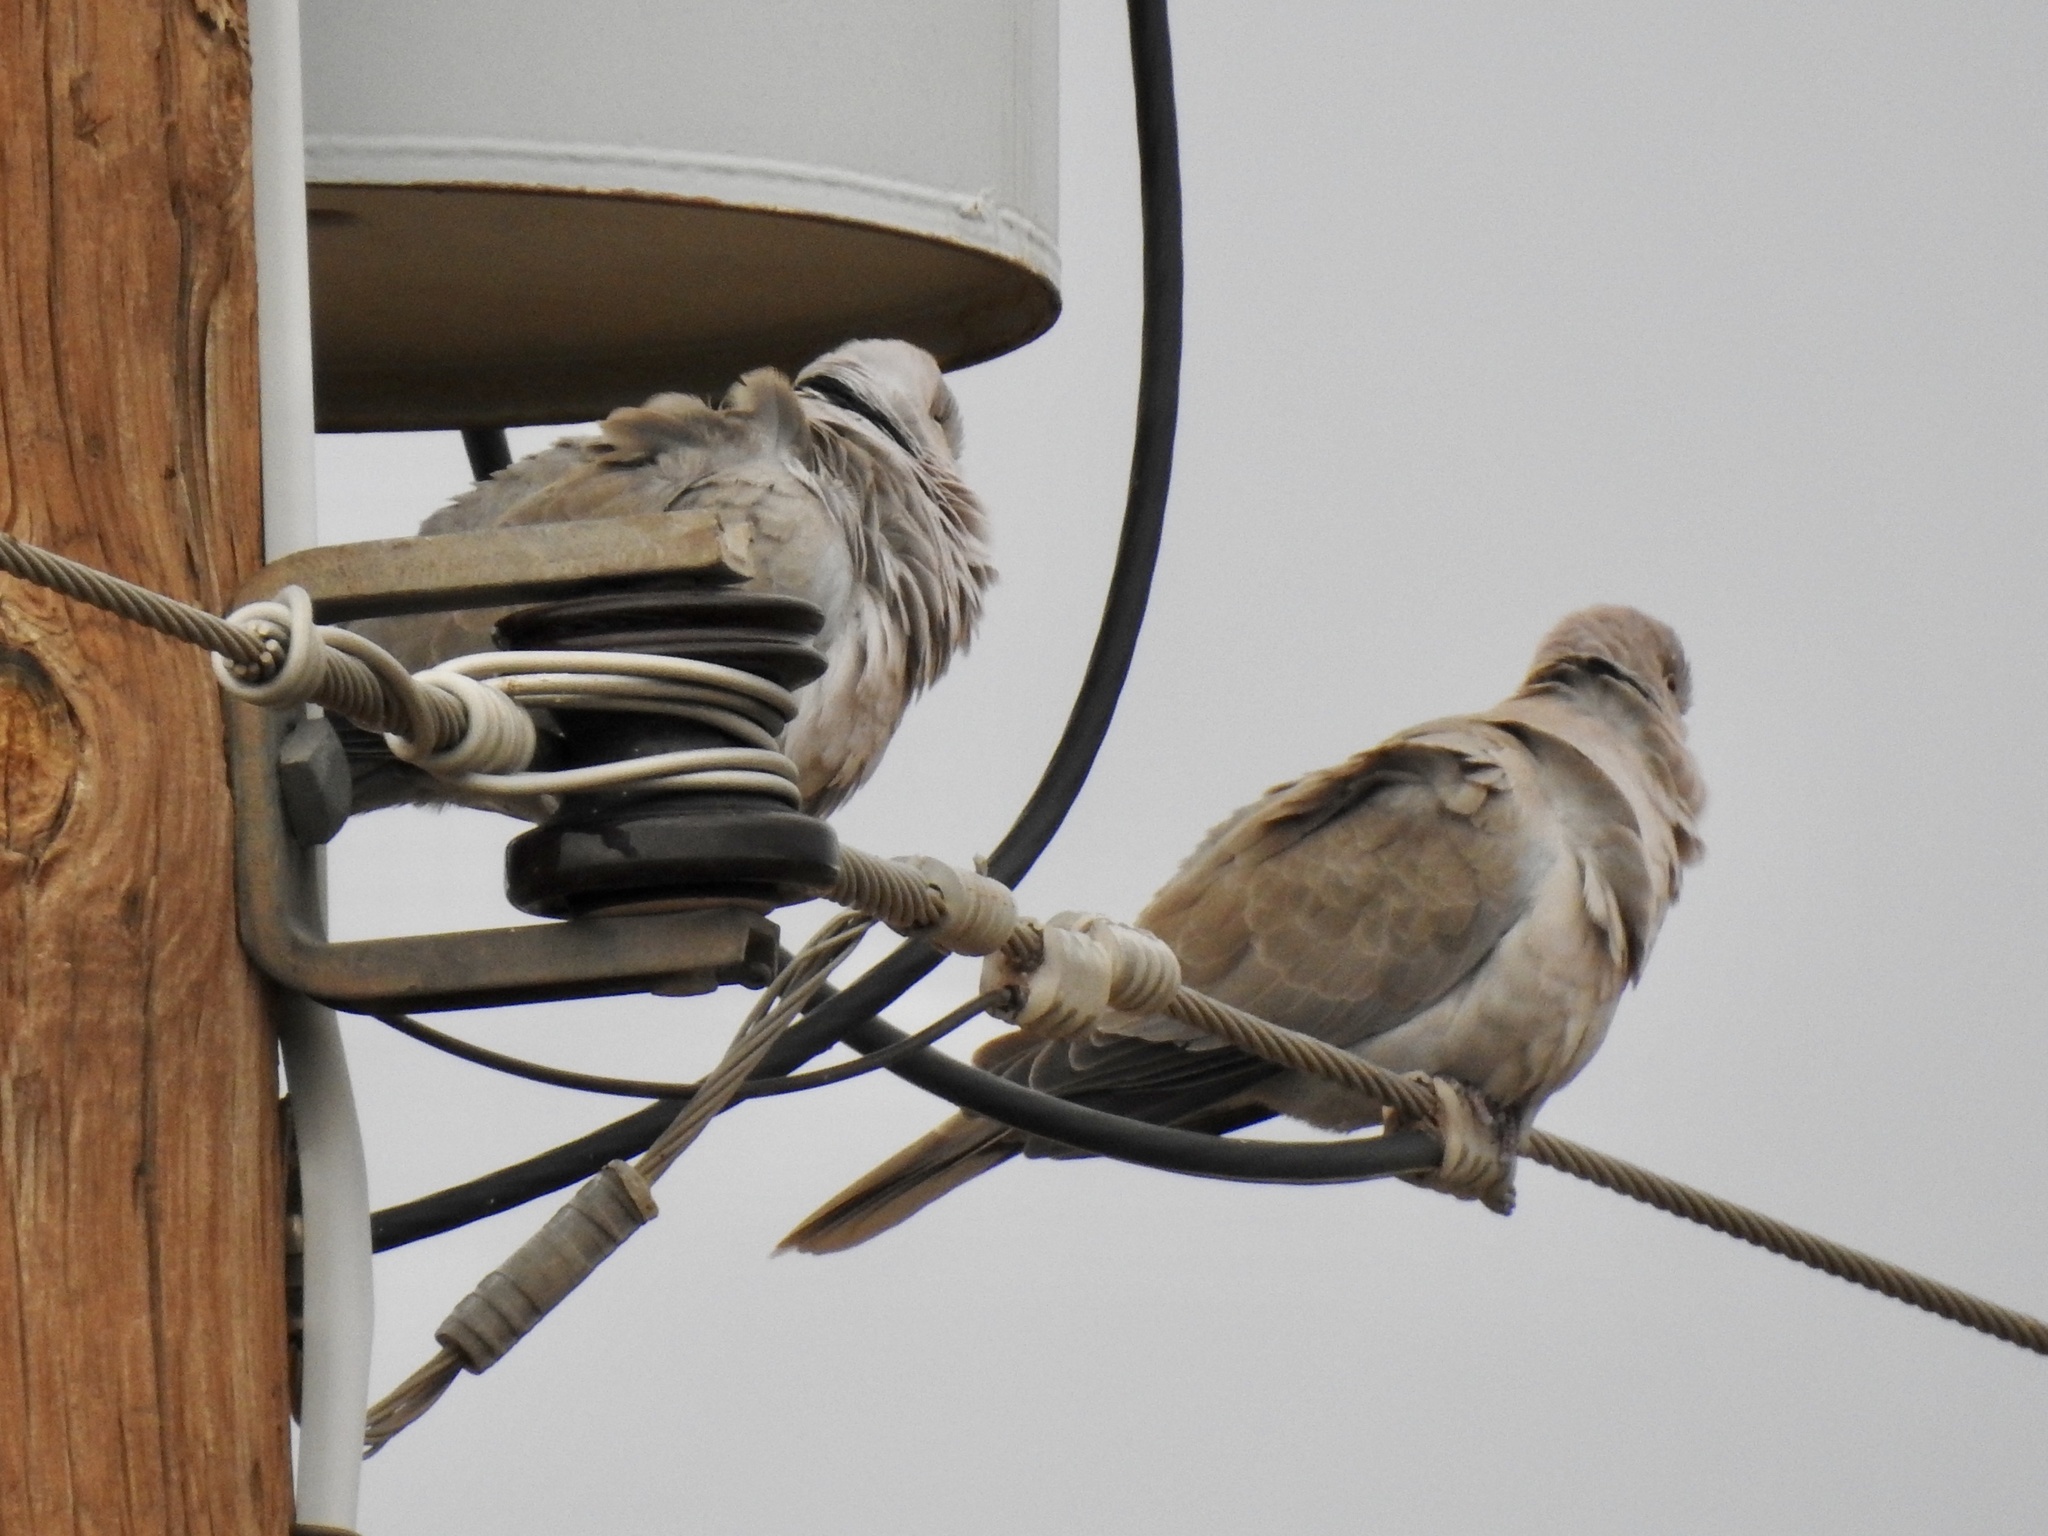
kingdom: Animalia
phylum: Chordata
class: Aves
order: Columbiformes
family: Columbidae
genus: Streptopelia
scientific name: Streptopelia decaocto
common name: Eurasian collared dove
